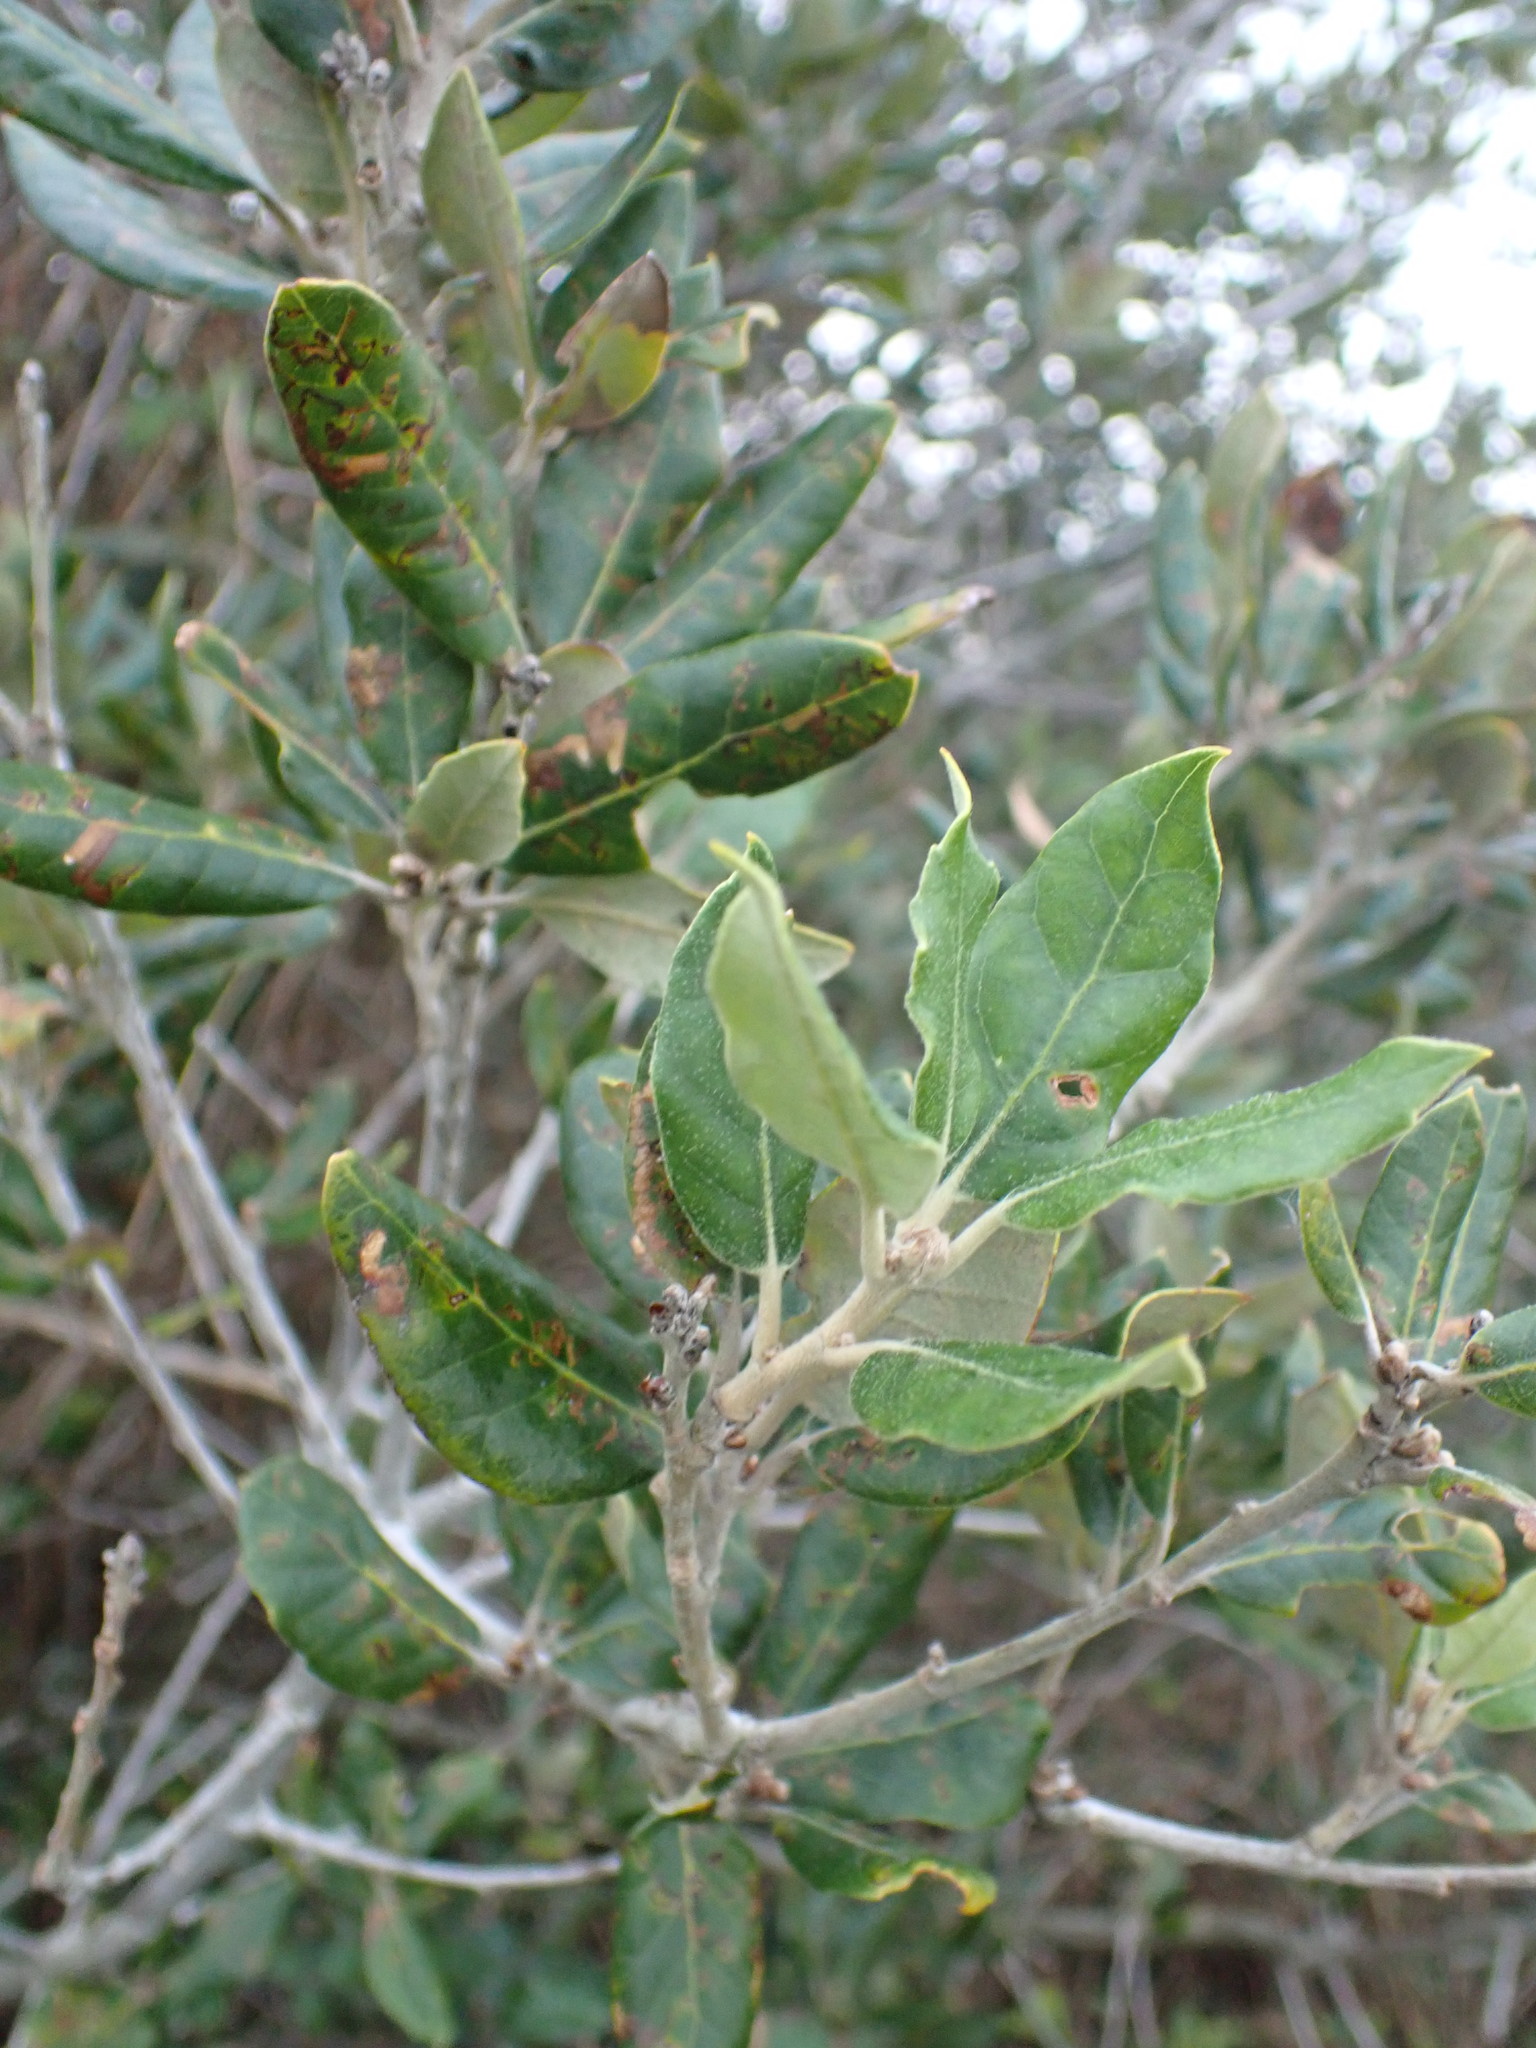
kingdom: Plantae
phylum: Tracheophyta
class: Magnoliopsida
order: Fagales
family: Fagaceae
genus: Quercus
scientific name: Quercus ilex
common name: Evergreen oak
